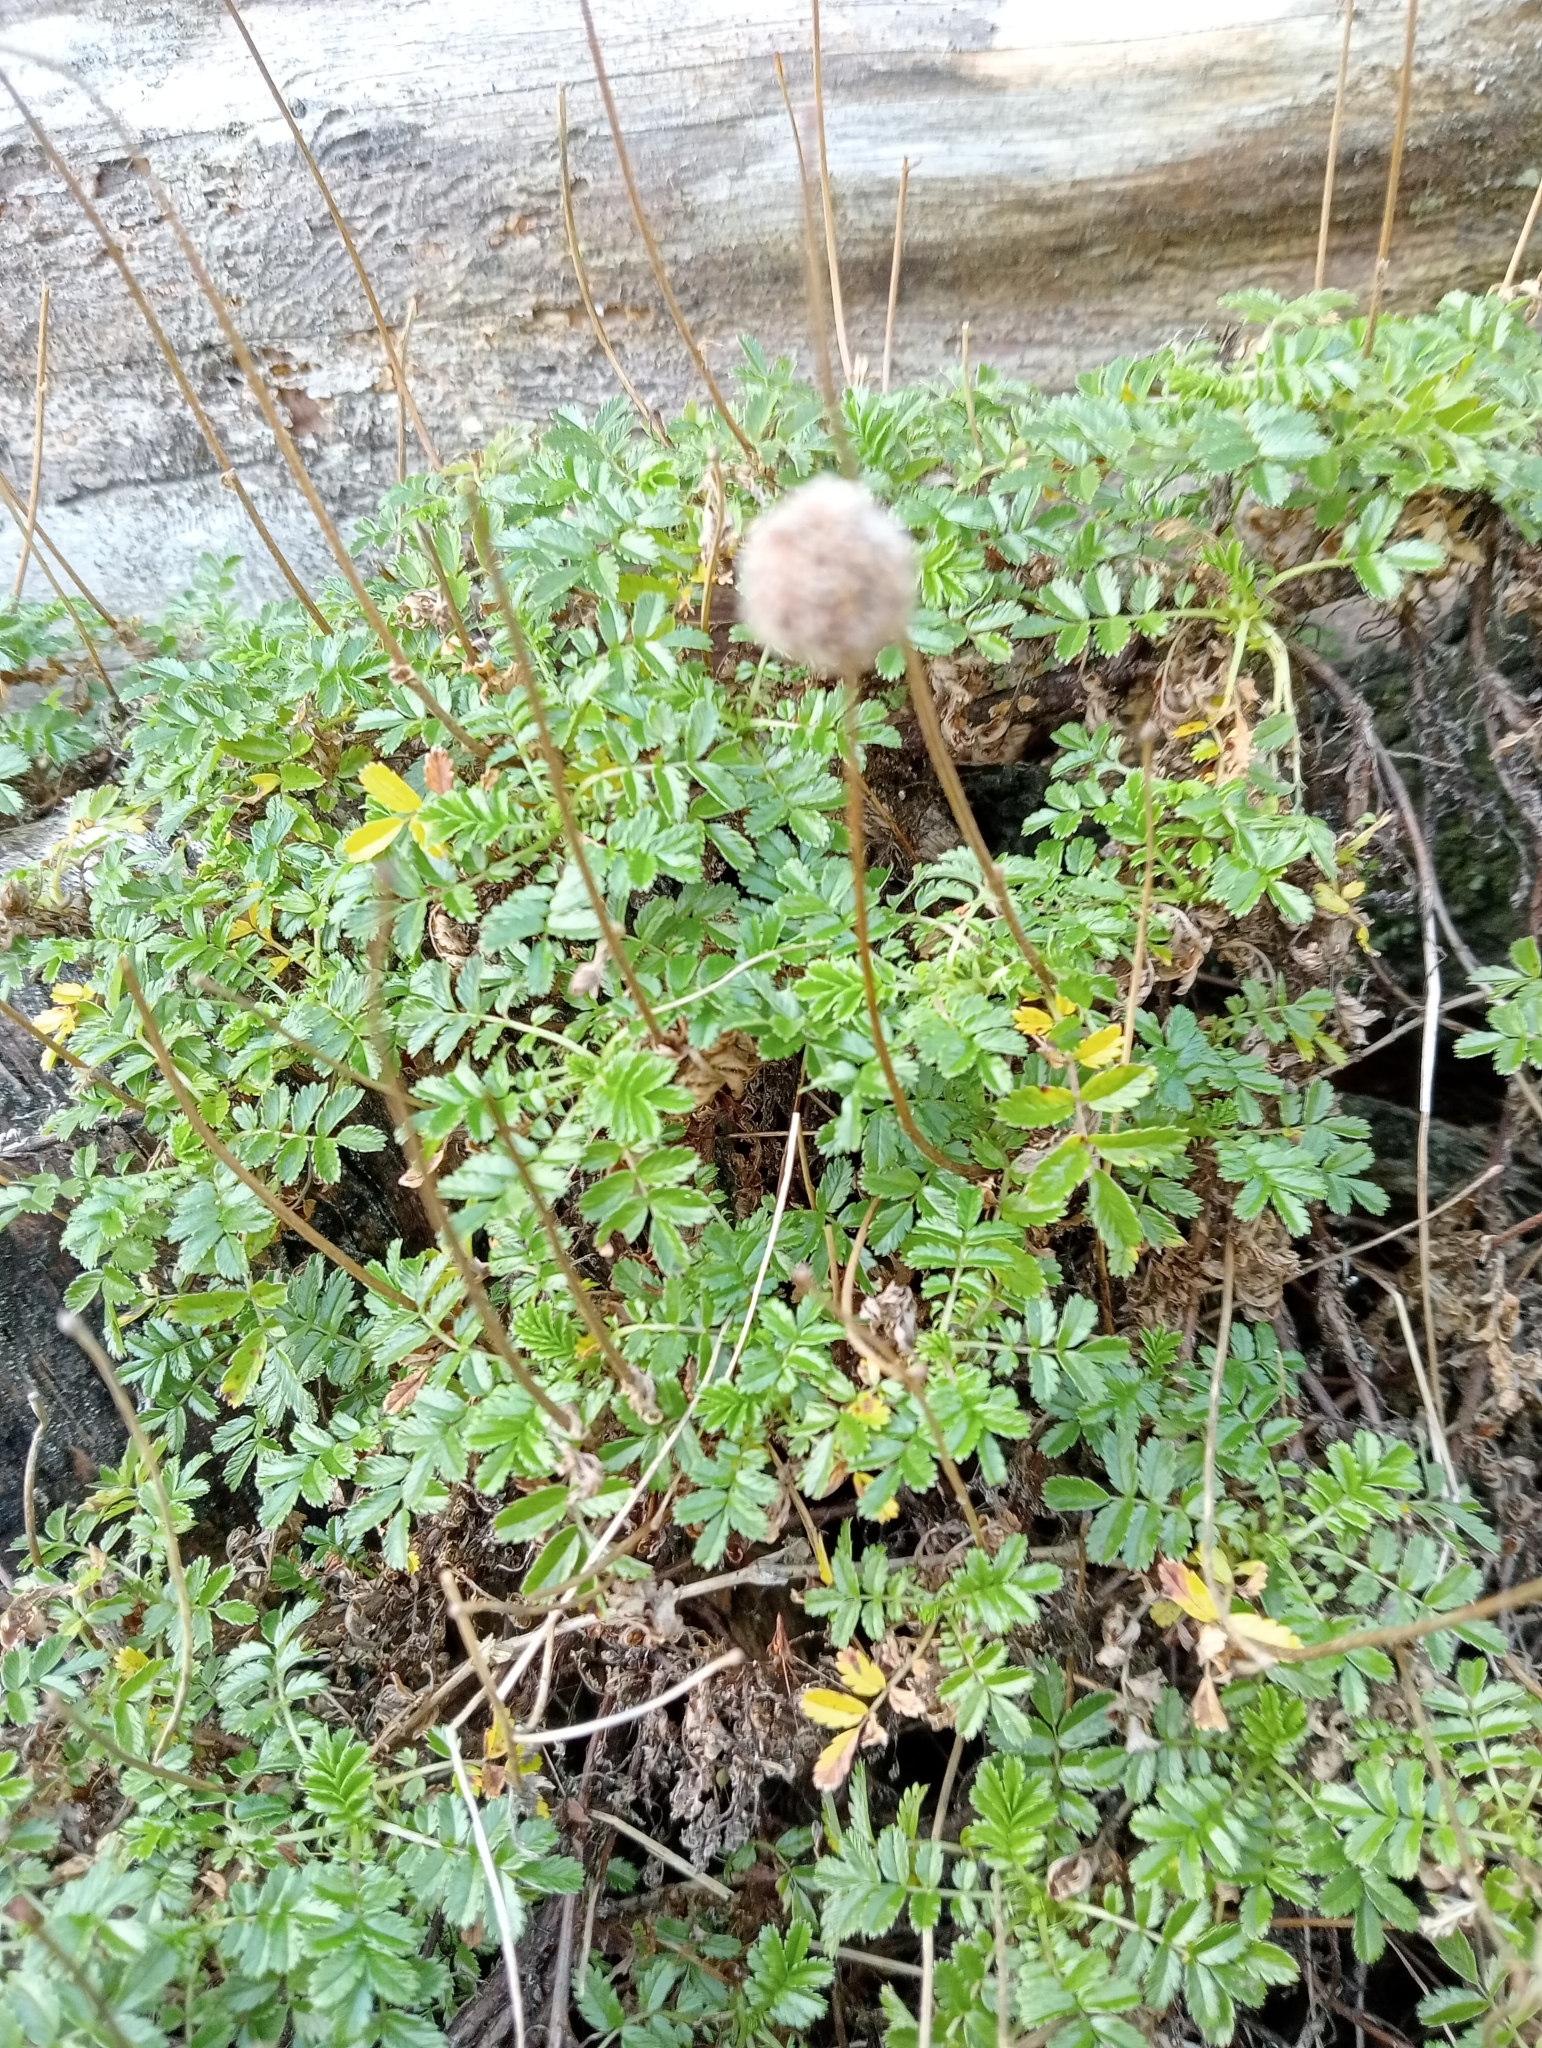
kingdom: Plantae
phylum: Tracheophyta
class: Magnoliopsida
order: Rosales
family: Rosaceae
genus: Acaena
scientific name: Acaena novae-zelandiae
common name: Pirri-pirri-bur
